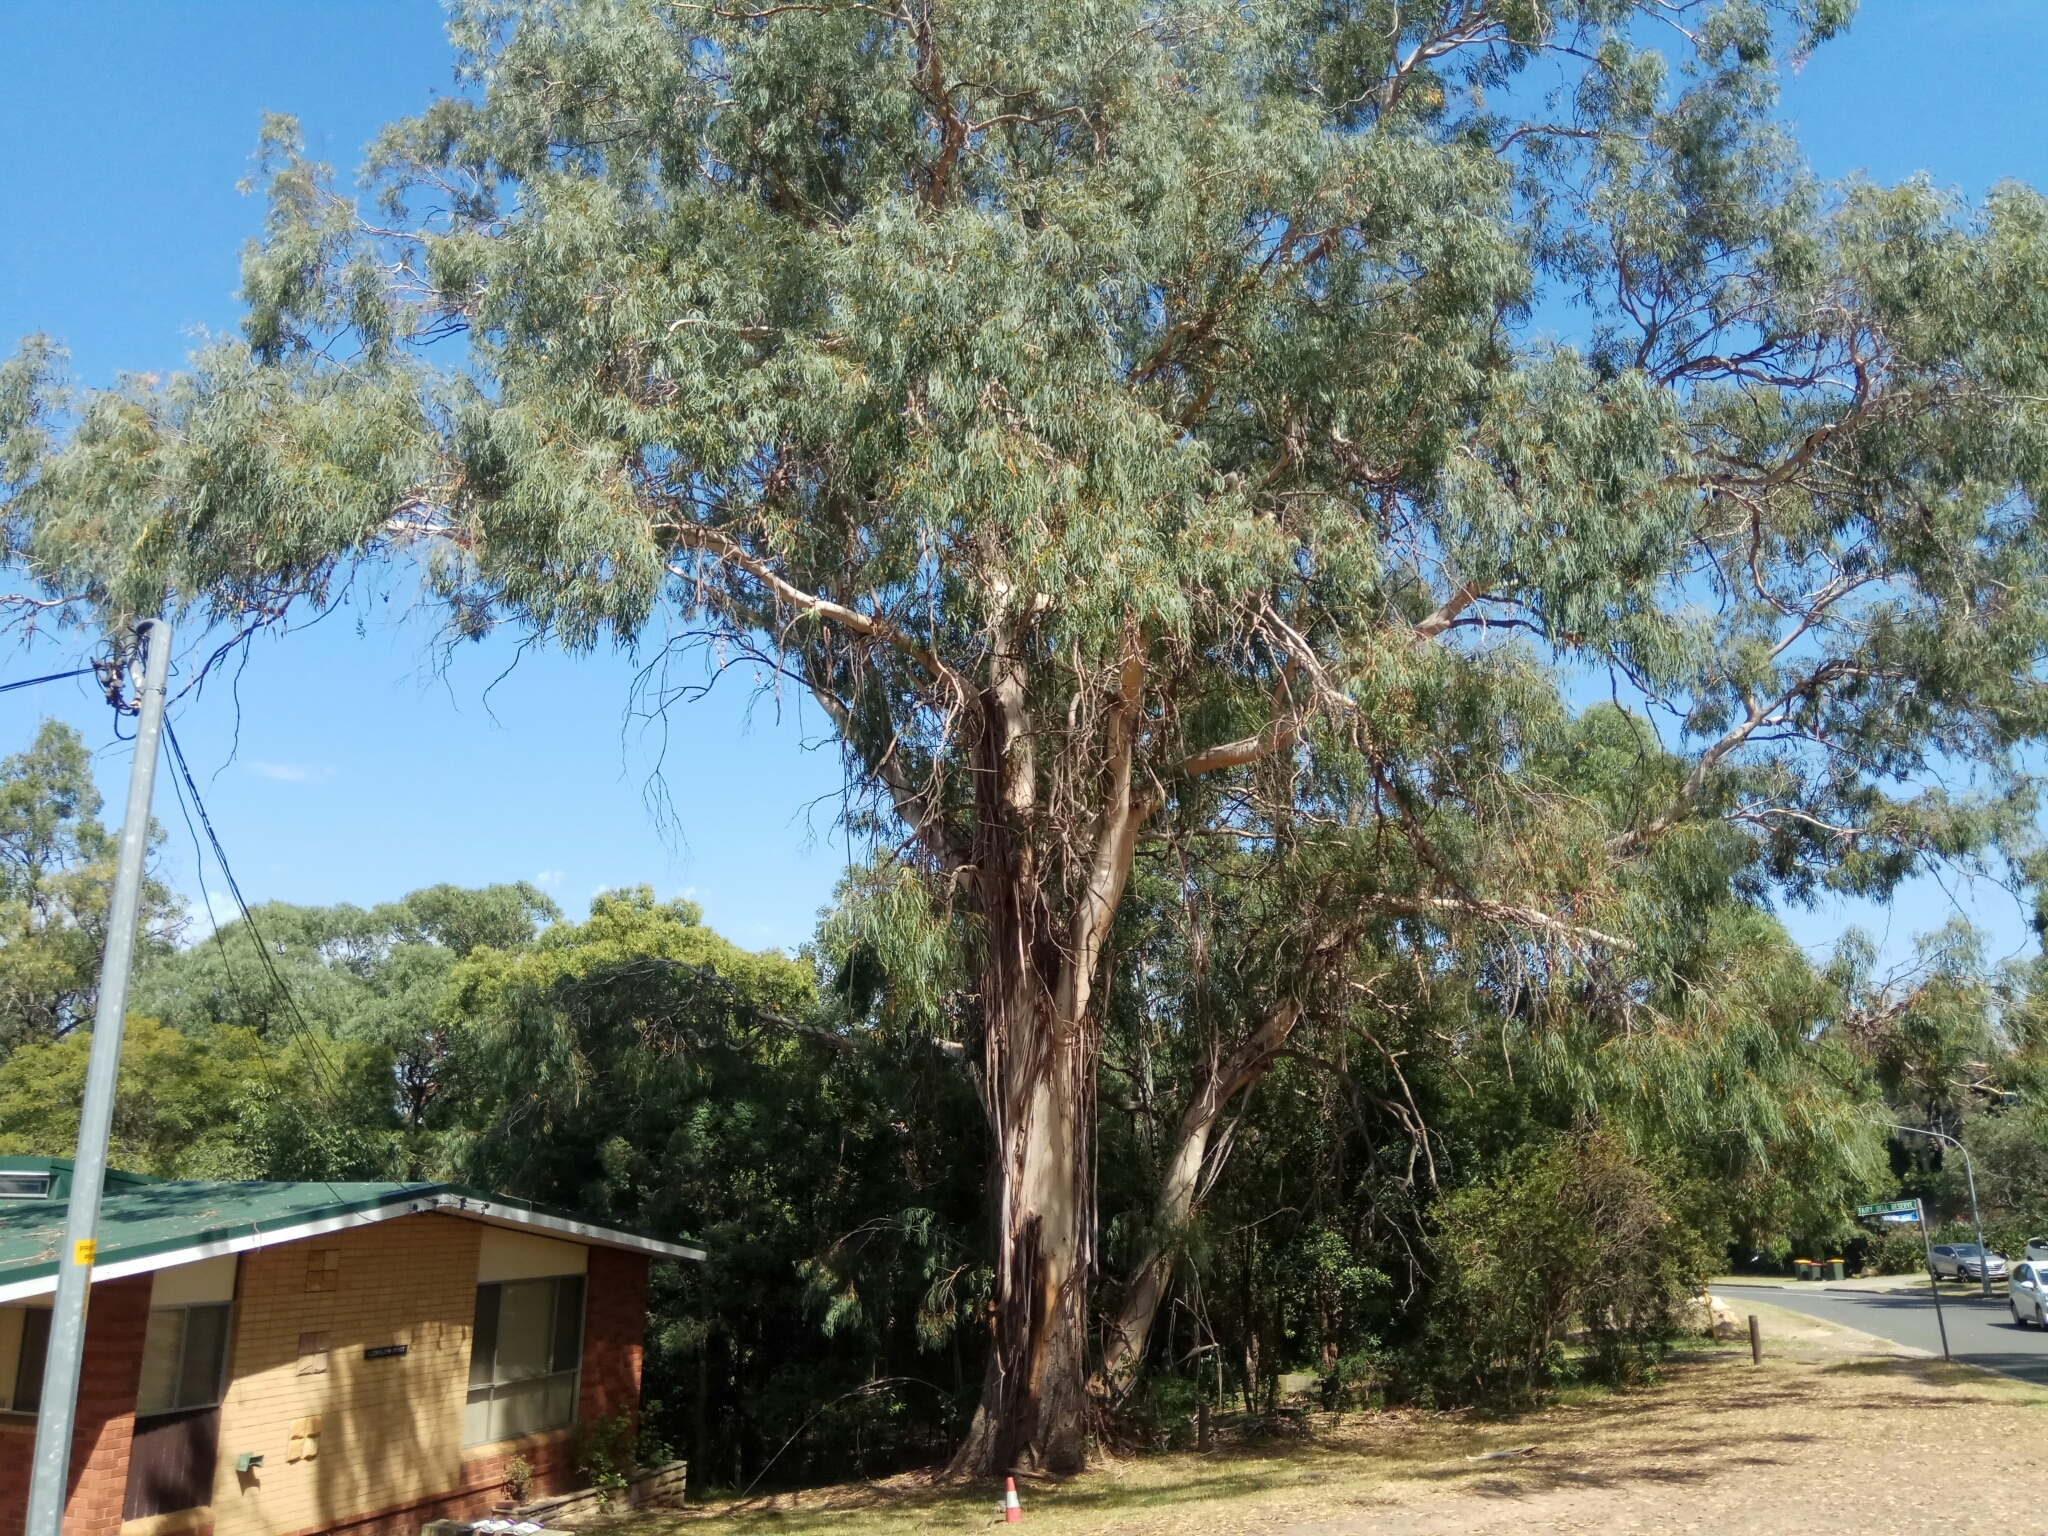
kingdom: Plantae
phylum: Tracheophyta
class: Magnoliopsida
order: Myrtales
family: Myrtaceae
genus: Eucalyptus
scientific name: Eucalyptus viminalis
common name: Manna gum
